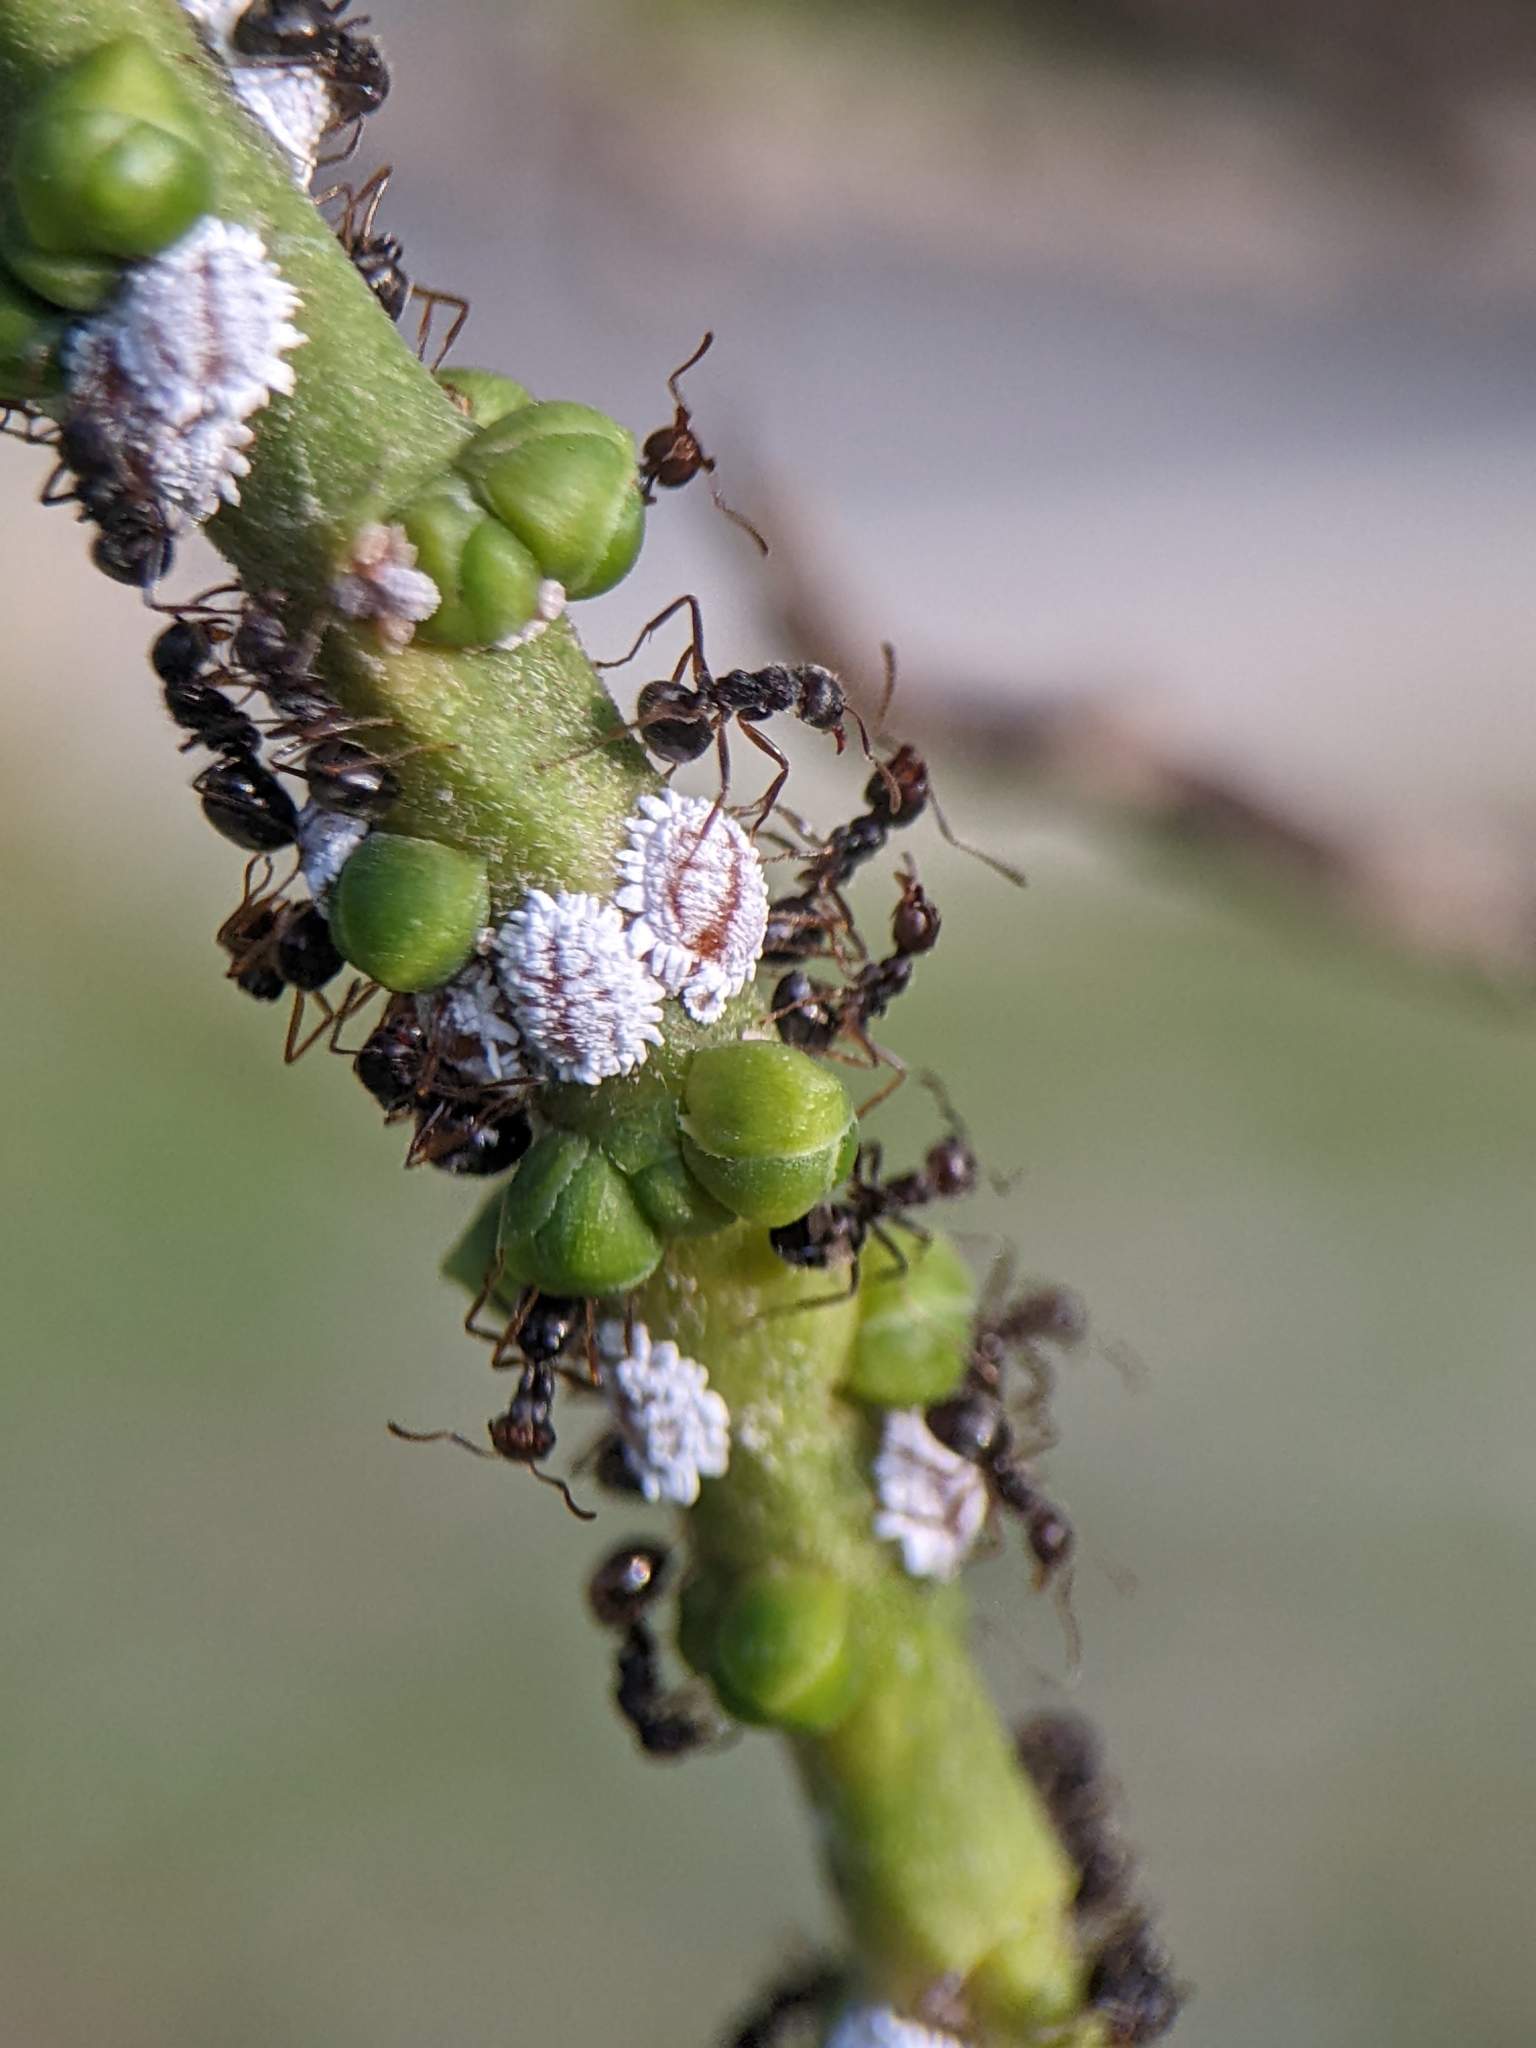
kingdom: Animalia
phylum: Arthropoda
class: Insecta
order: Hymenoptera
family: Formicidae
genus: Dolichoderus
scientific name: Dolichoderus thoracicus
